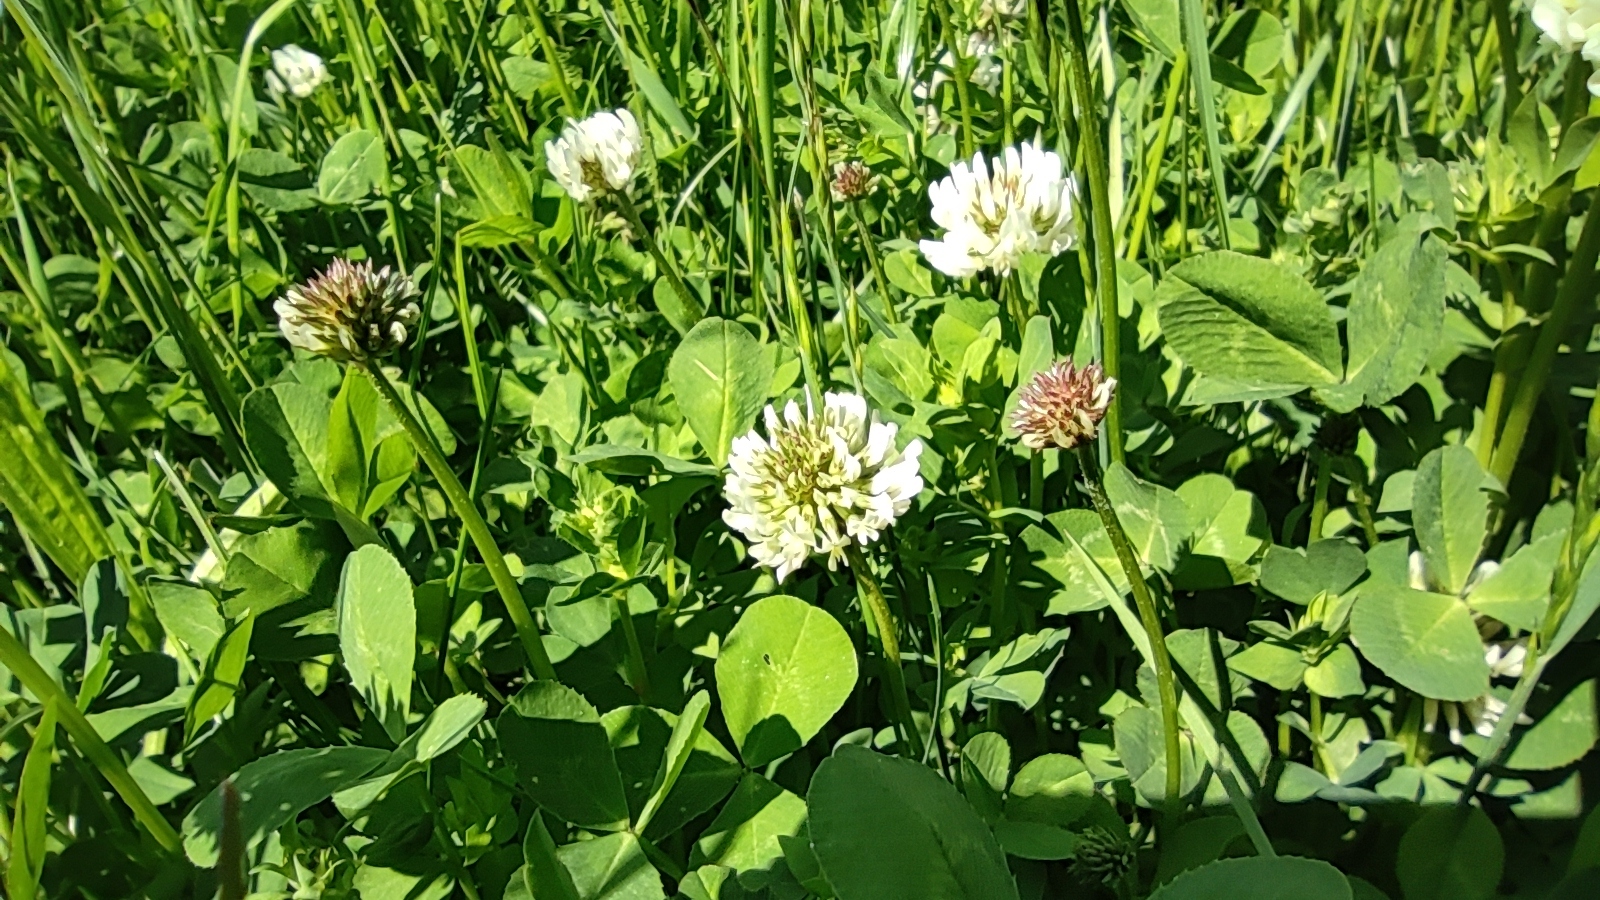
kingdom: Plantae
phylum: Tracheophyta
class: Magnoliopsida
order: Fabales
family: Fabaceae
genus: Trifolium
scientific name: Trifolium repens
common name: White clover
